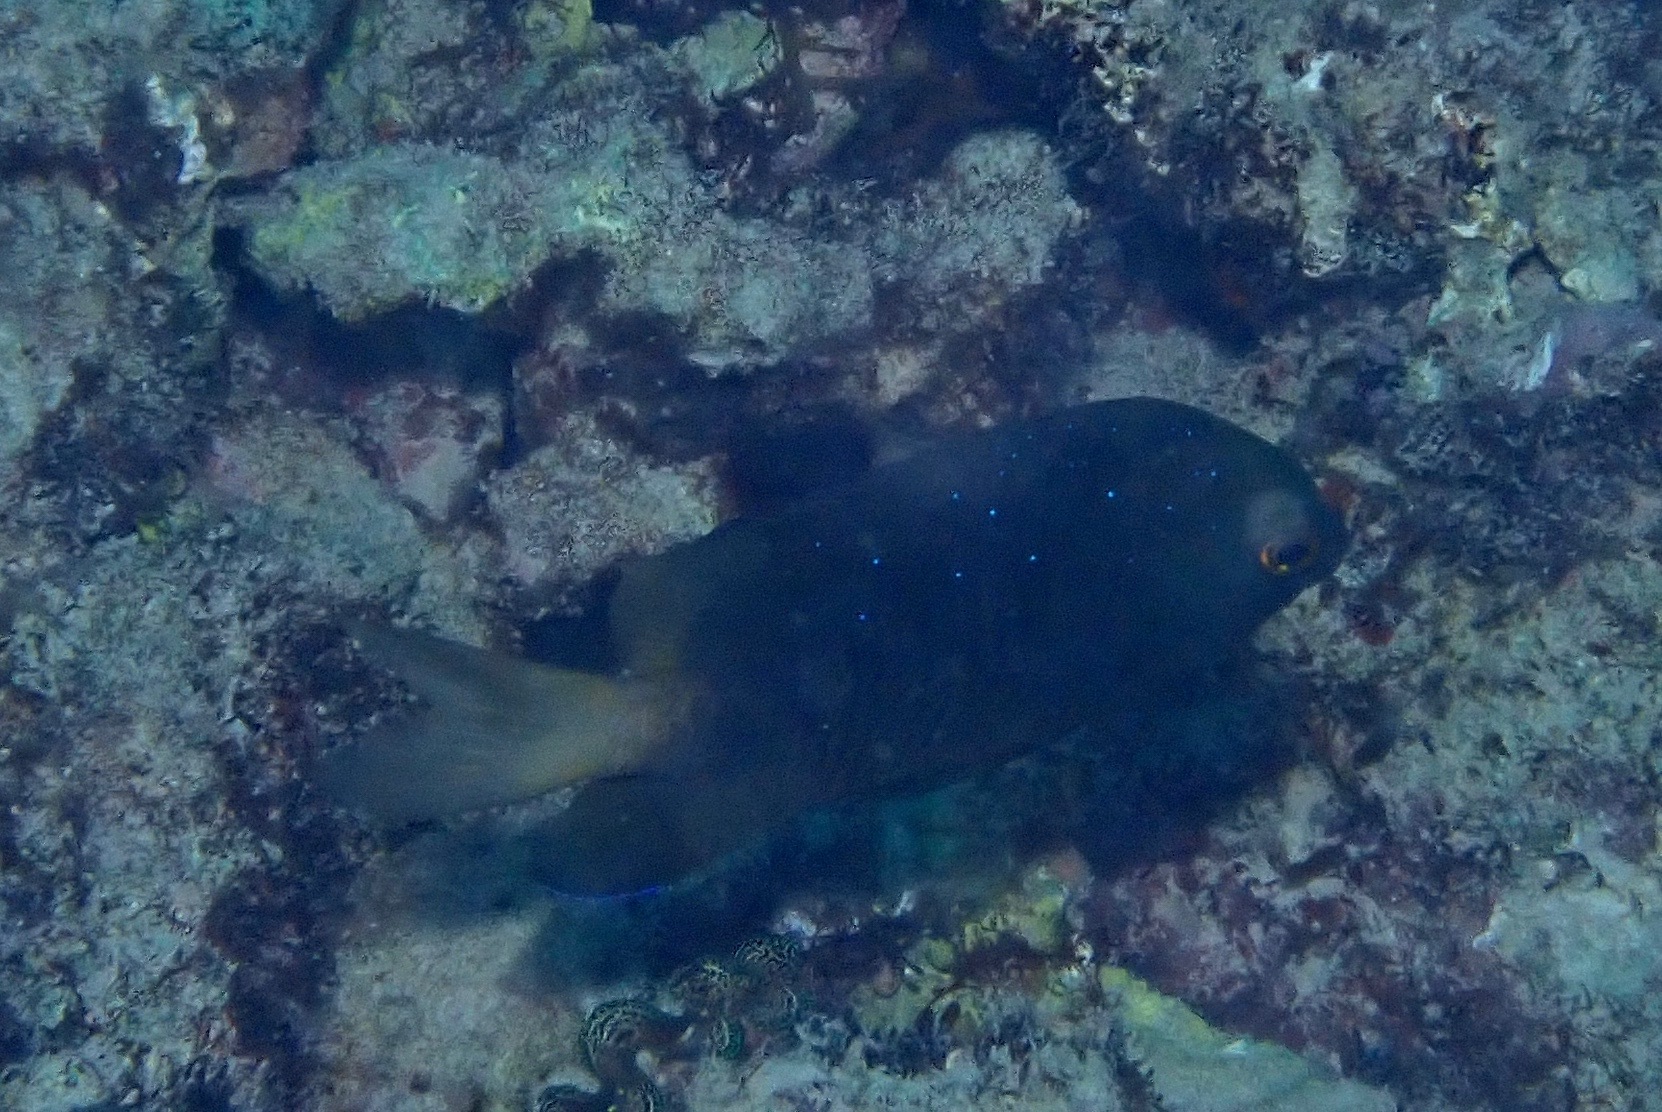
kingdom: Animalia
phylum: Chordata
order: Perciformes
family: Pomacentridae
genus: Plectroglyphidodon
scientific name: Plectroglyphidodon lacrymatus
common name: Jewel damsel
